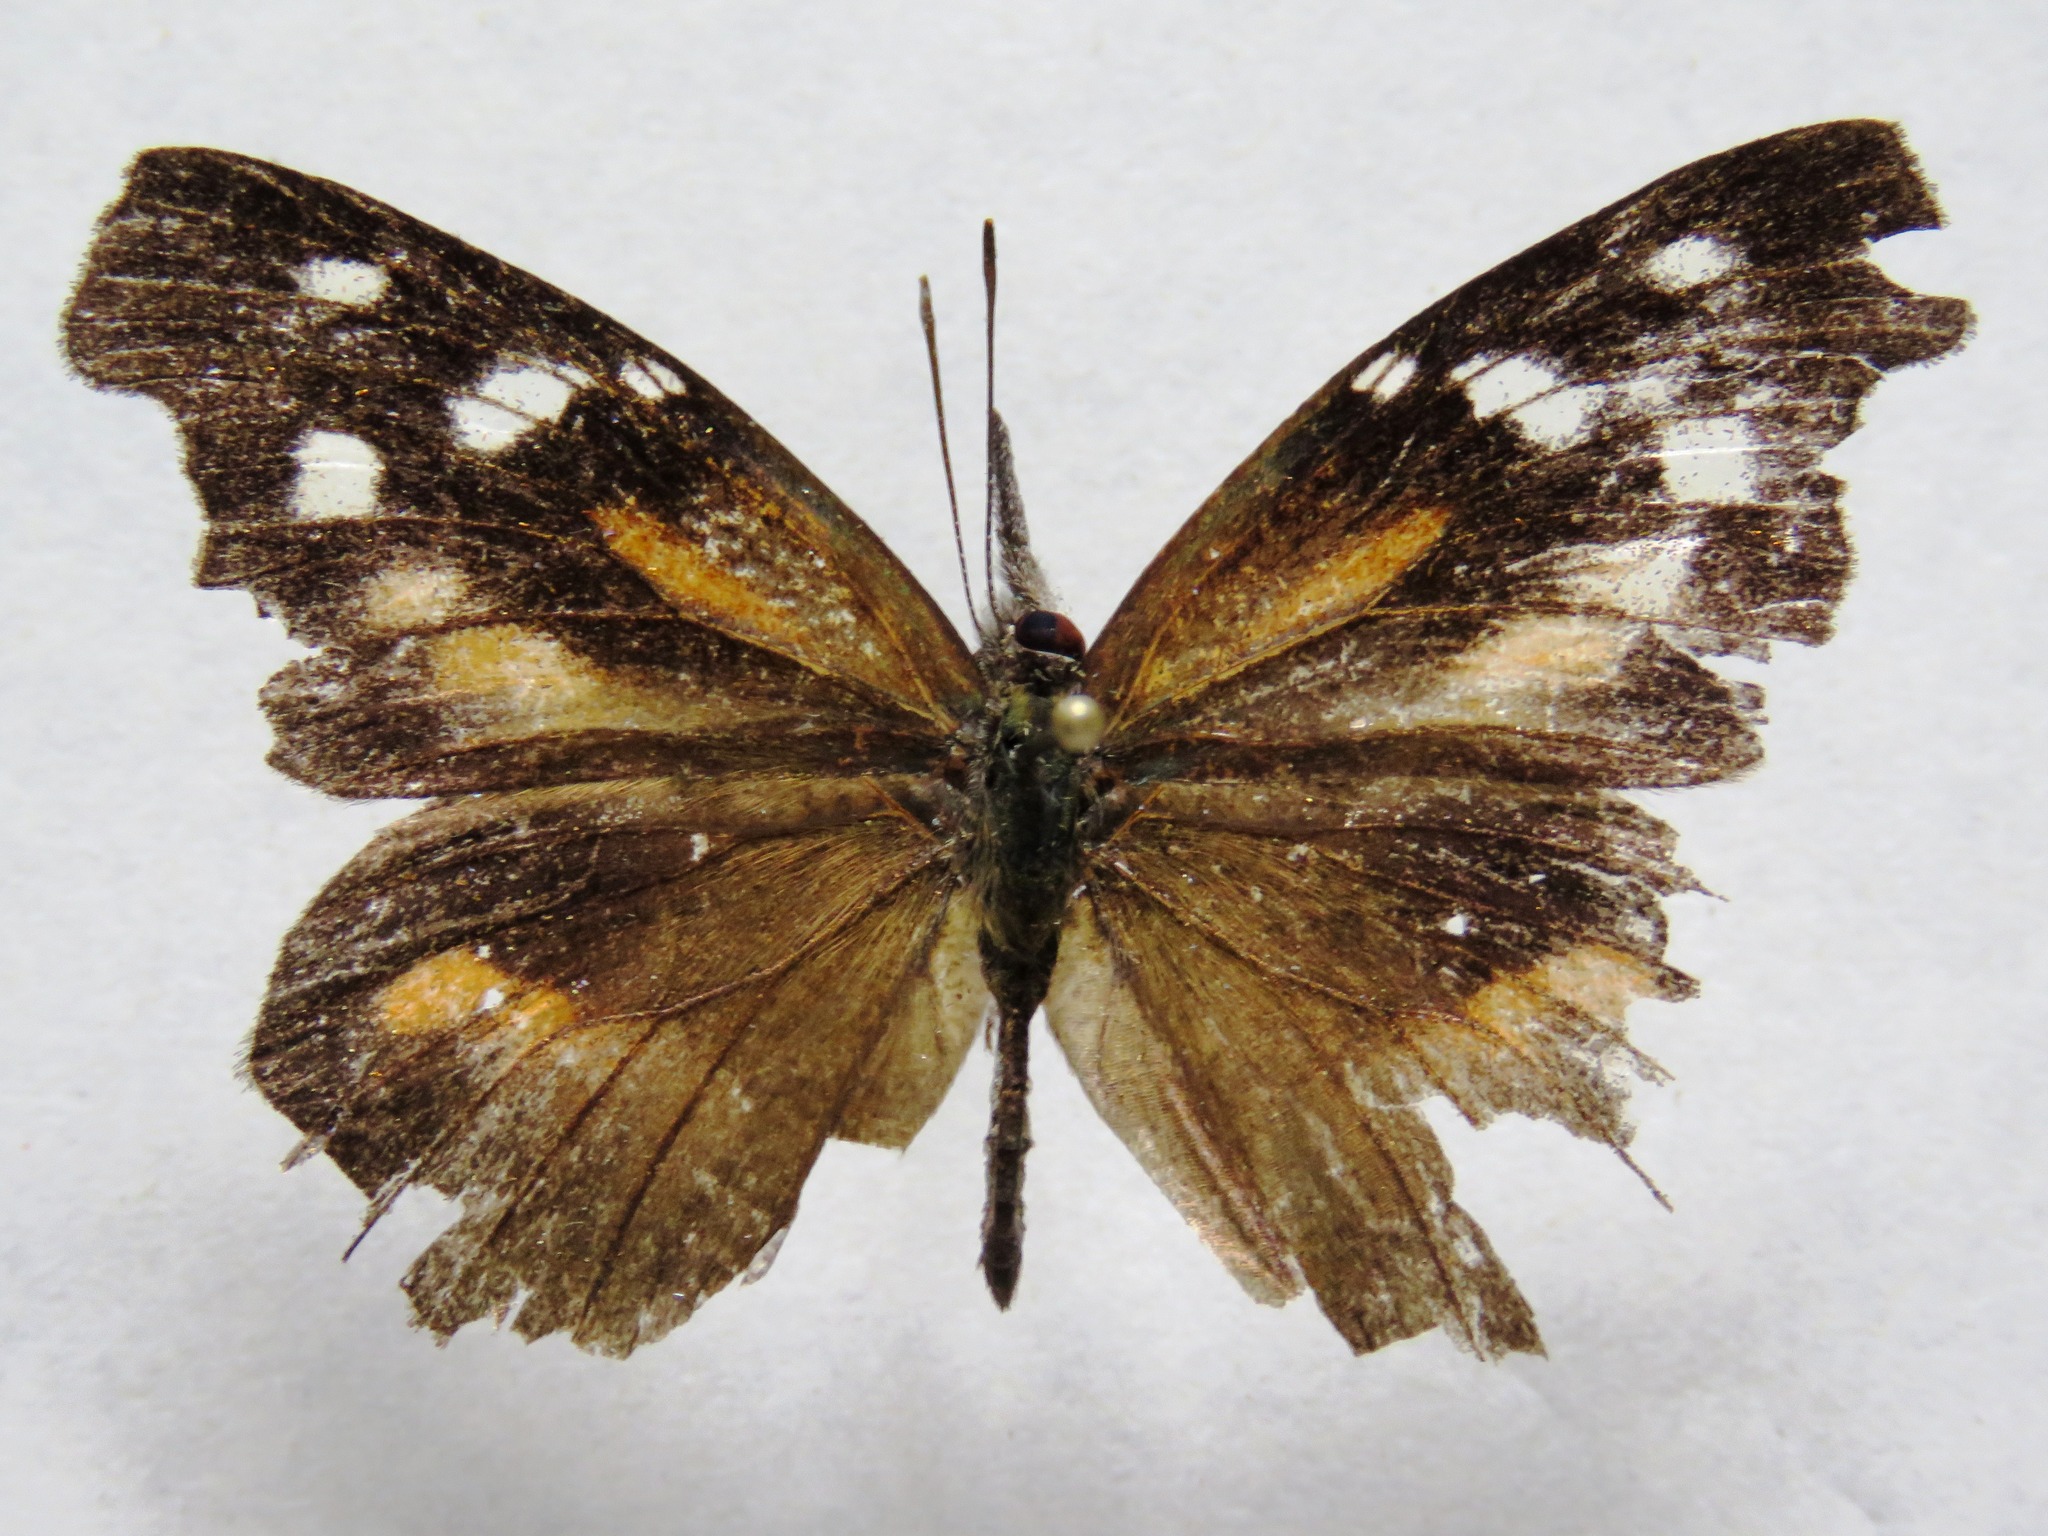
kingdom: Animalia
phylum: Arthropoda
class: Insecta
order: Lepidoptera
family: Nymphalidae
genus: Libytheana
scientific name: Libytheana carinenta
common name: American snout
